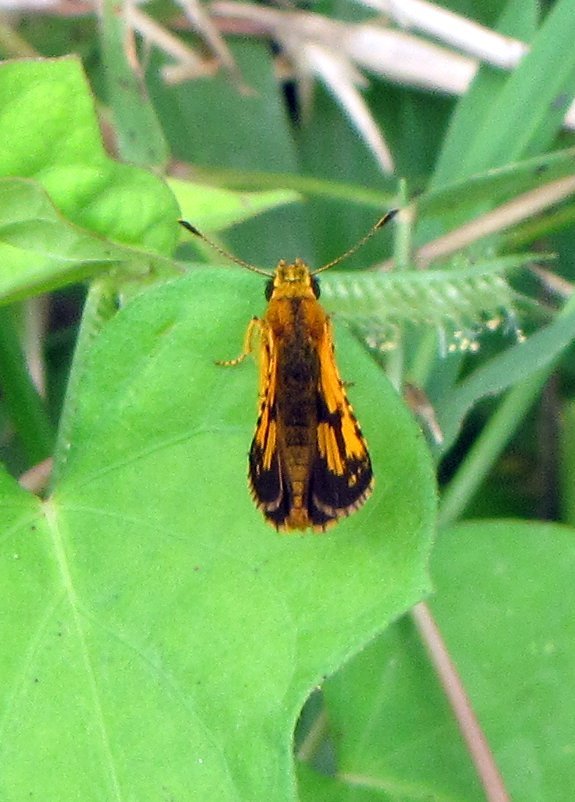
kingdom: Animalia
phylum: Arthropoda
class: Insecta
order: Lepidoptera
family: Hesperiidae
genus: Ampittia
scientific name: Ampittia dioscorides
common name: Common bush hopper
